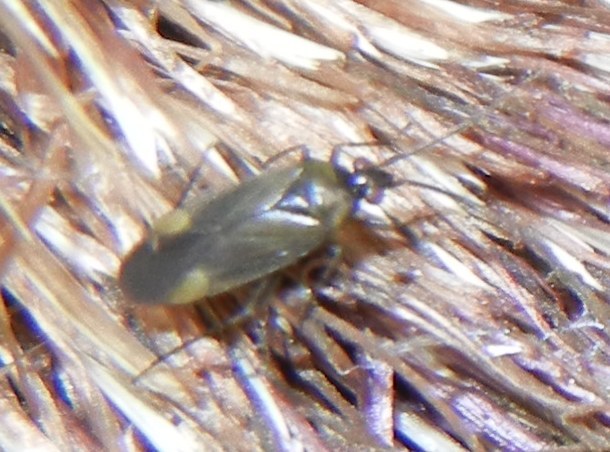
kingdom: Animalia
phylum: Arthropoda
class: Insecta
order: Hemiptera
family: Miridae
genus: Plagiognathus
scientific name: Plagiognathus arbustorum
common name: Plant bug
